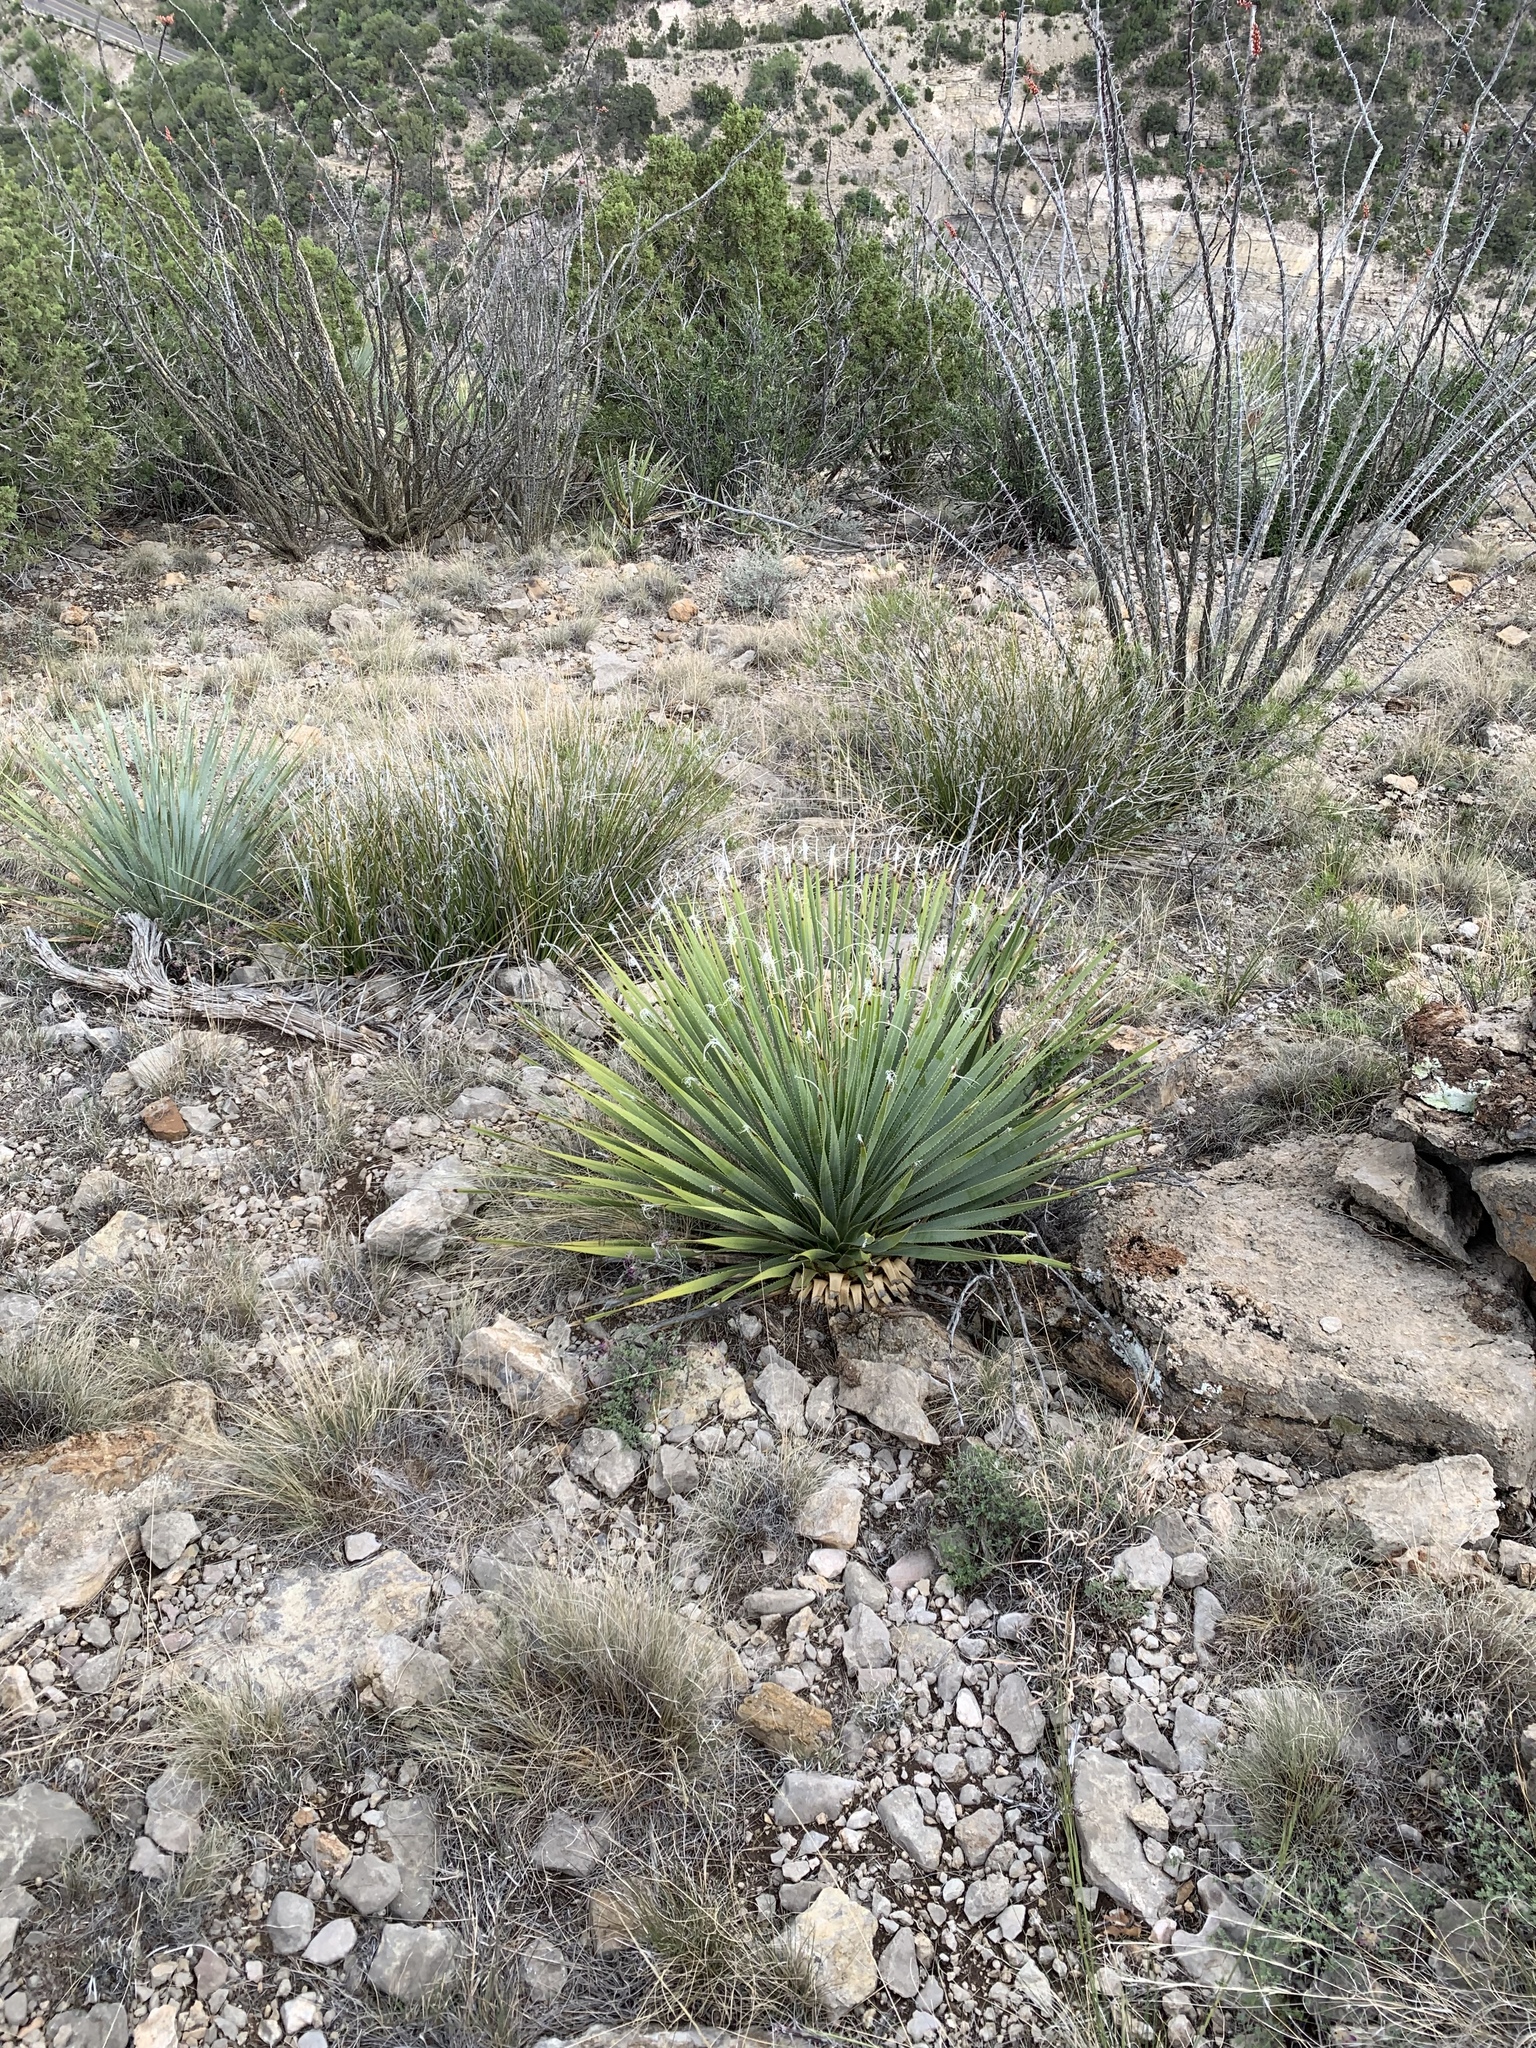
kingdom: Plantae
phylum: Tracheophyta
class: Liliopsida
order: Asparagales
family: Asparagaceae
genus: Dasylirion
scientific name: Dasylirion wheeleri
